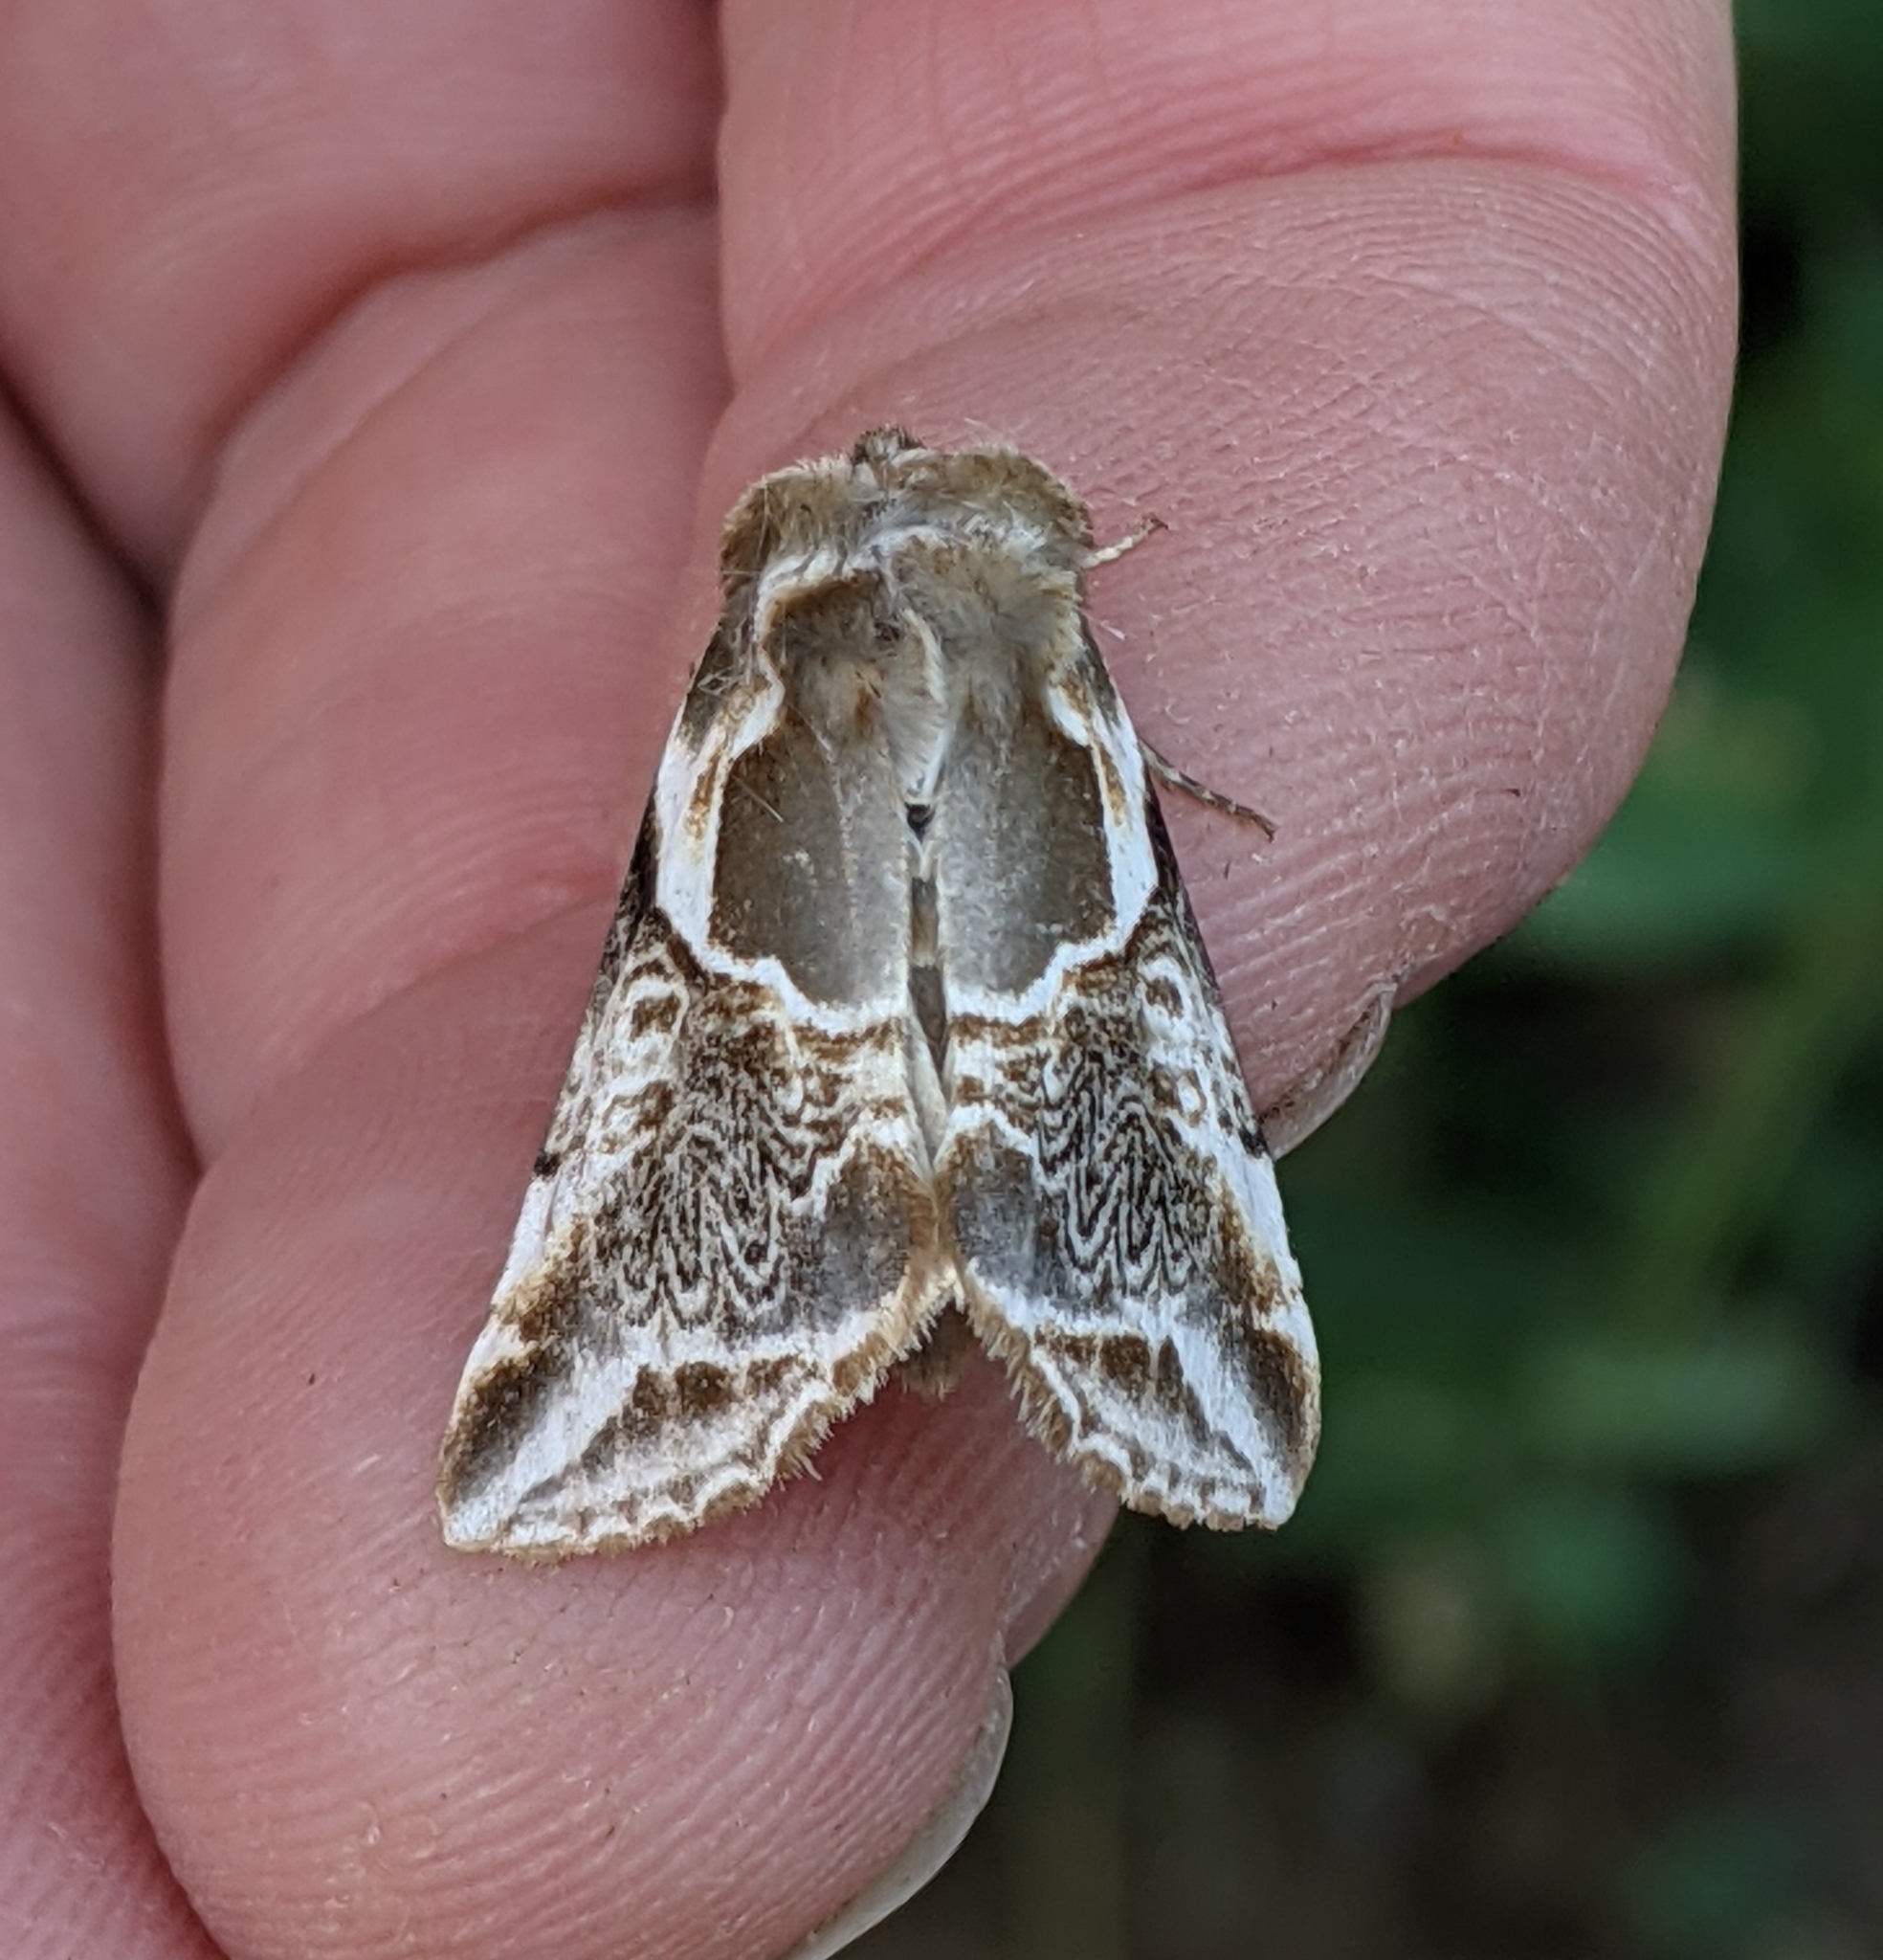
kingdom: Animalia
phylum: Arthropoda
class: Insecta
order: Lepidoptera
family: Drepanidae
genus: Habrosyne
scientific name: Habrosyne scripta
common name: Lettered habrosyne moth
